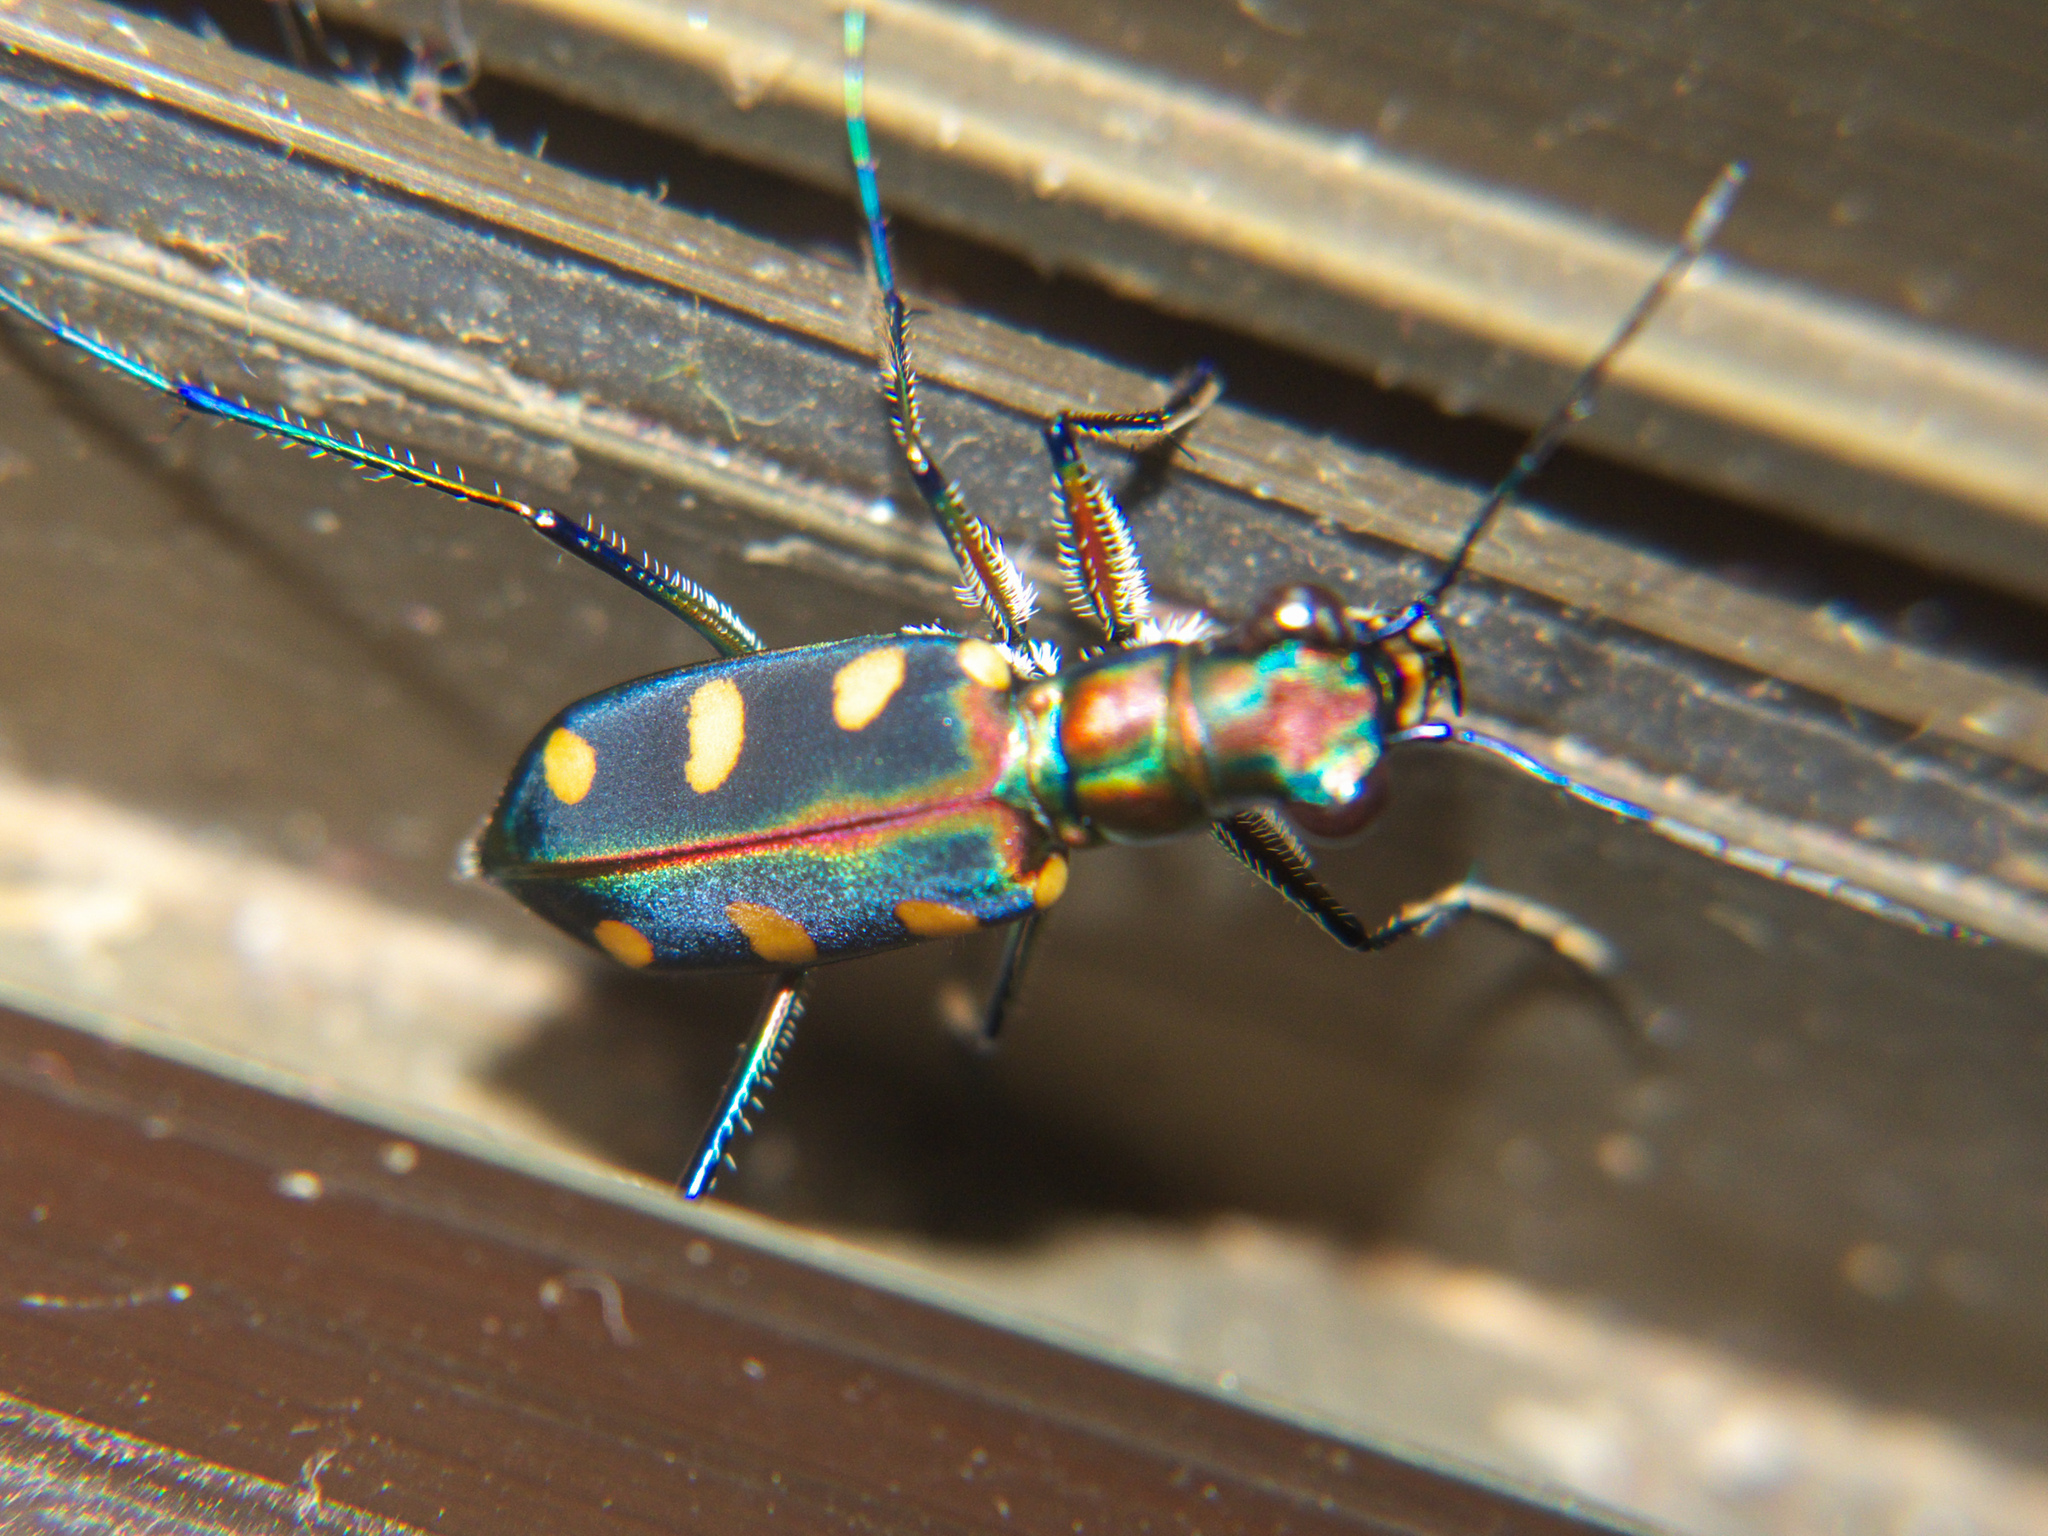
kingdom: Animalia
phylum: Arthropoda
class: Insecta
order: Coleoptera
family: Carabidae
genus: Cicindela
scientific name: Cicindela juxtata
